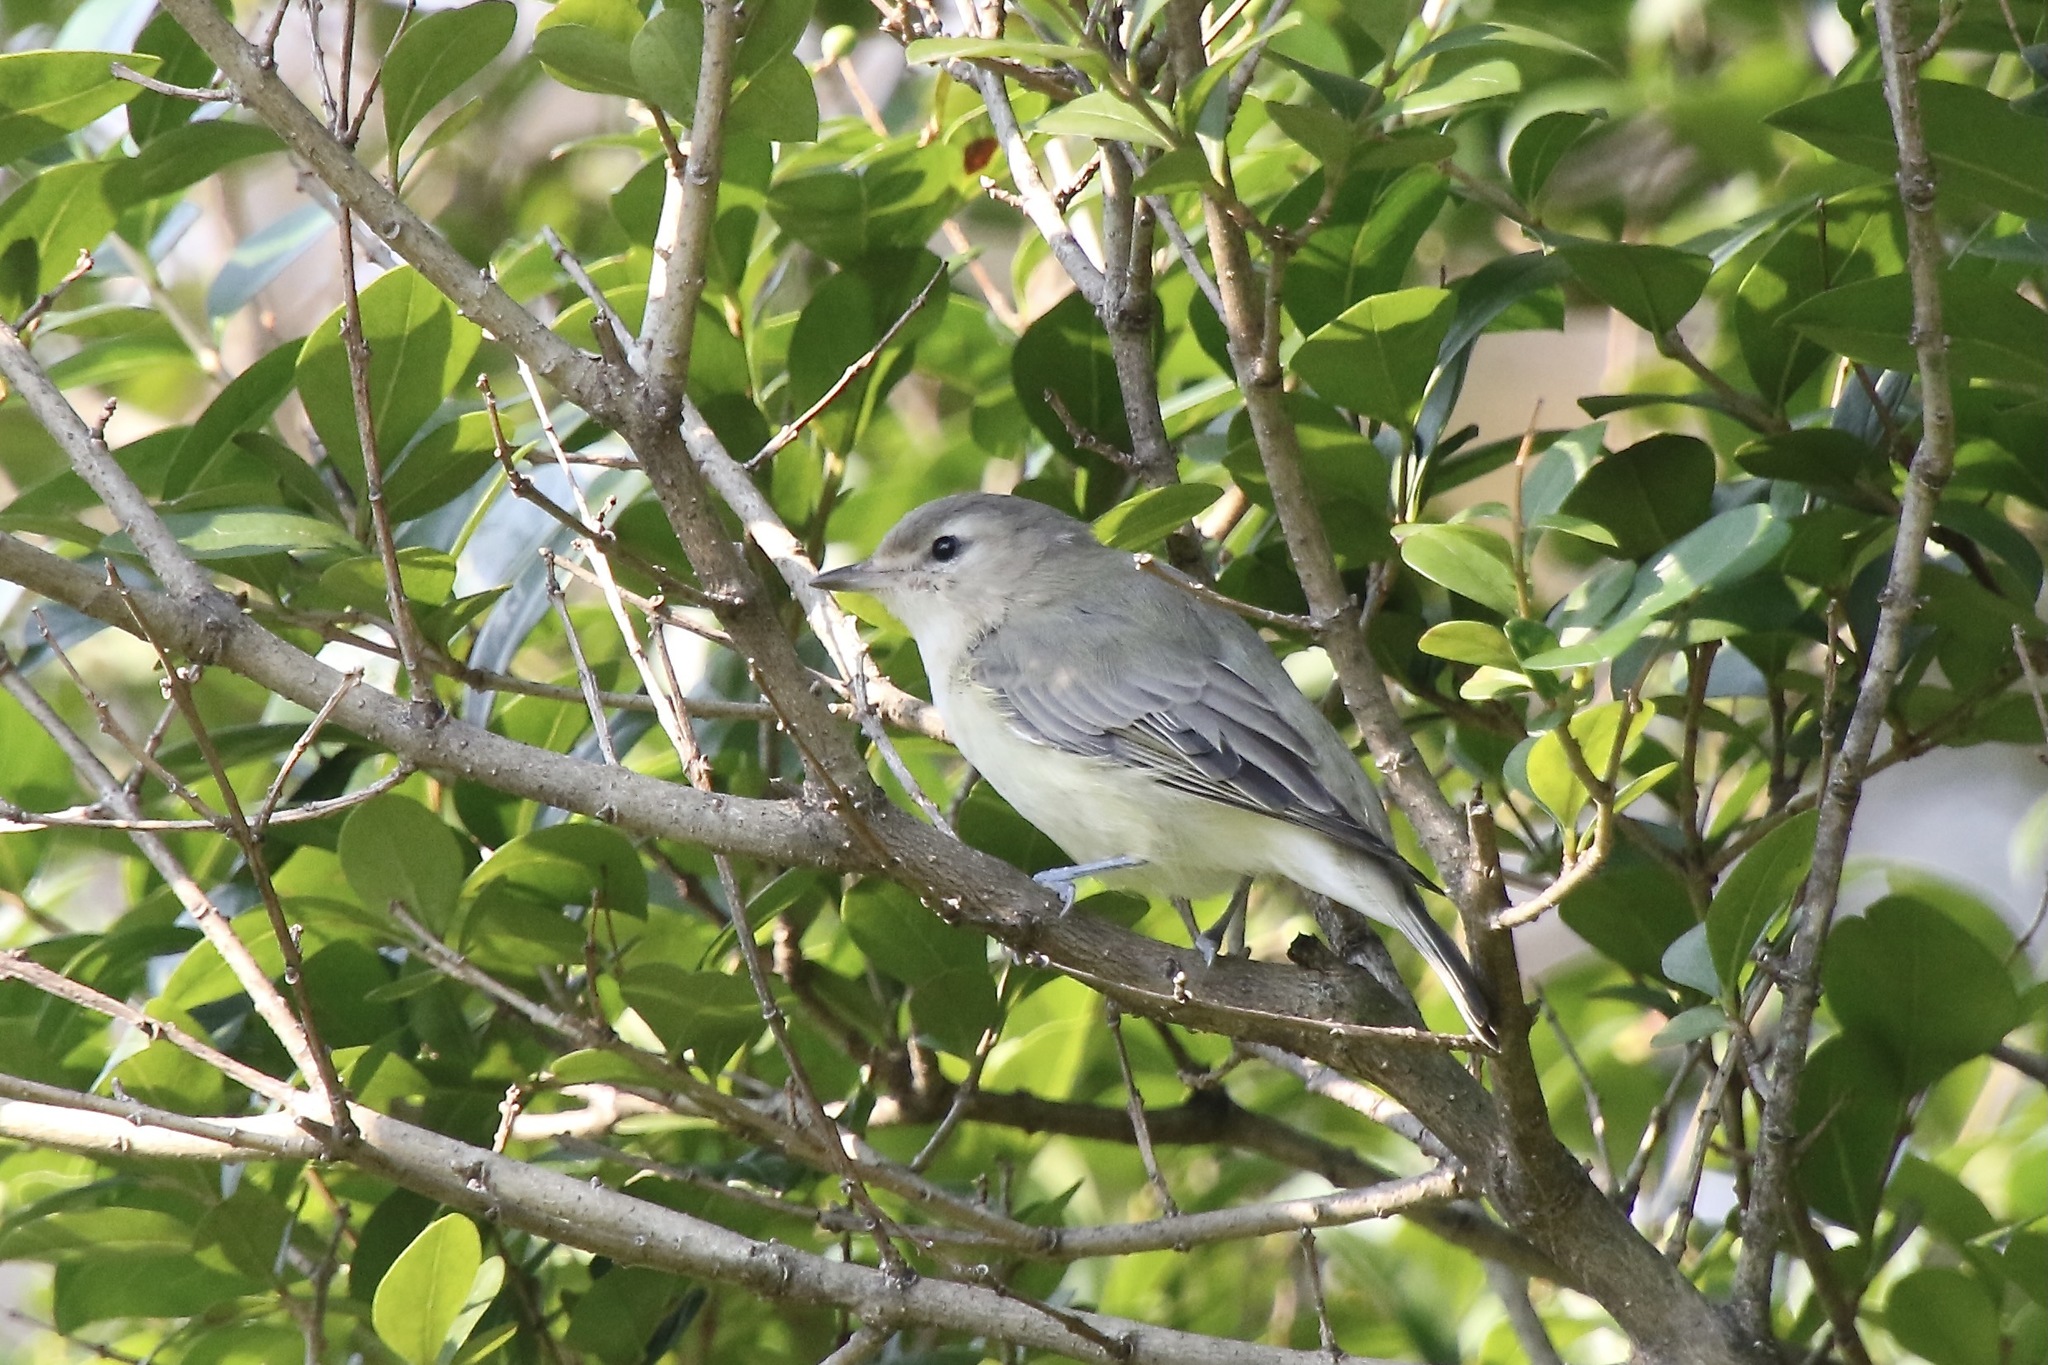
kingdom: Animalia
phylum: Chordata
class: Aves
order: Passeriformes
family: Vireonidae
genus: Vireo
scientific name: Vireo gilvus
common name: Warbling vireo
